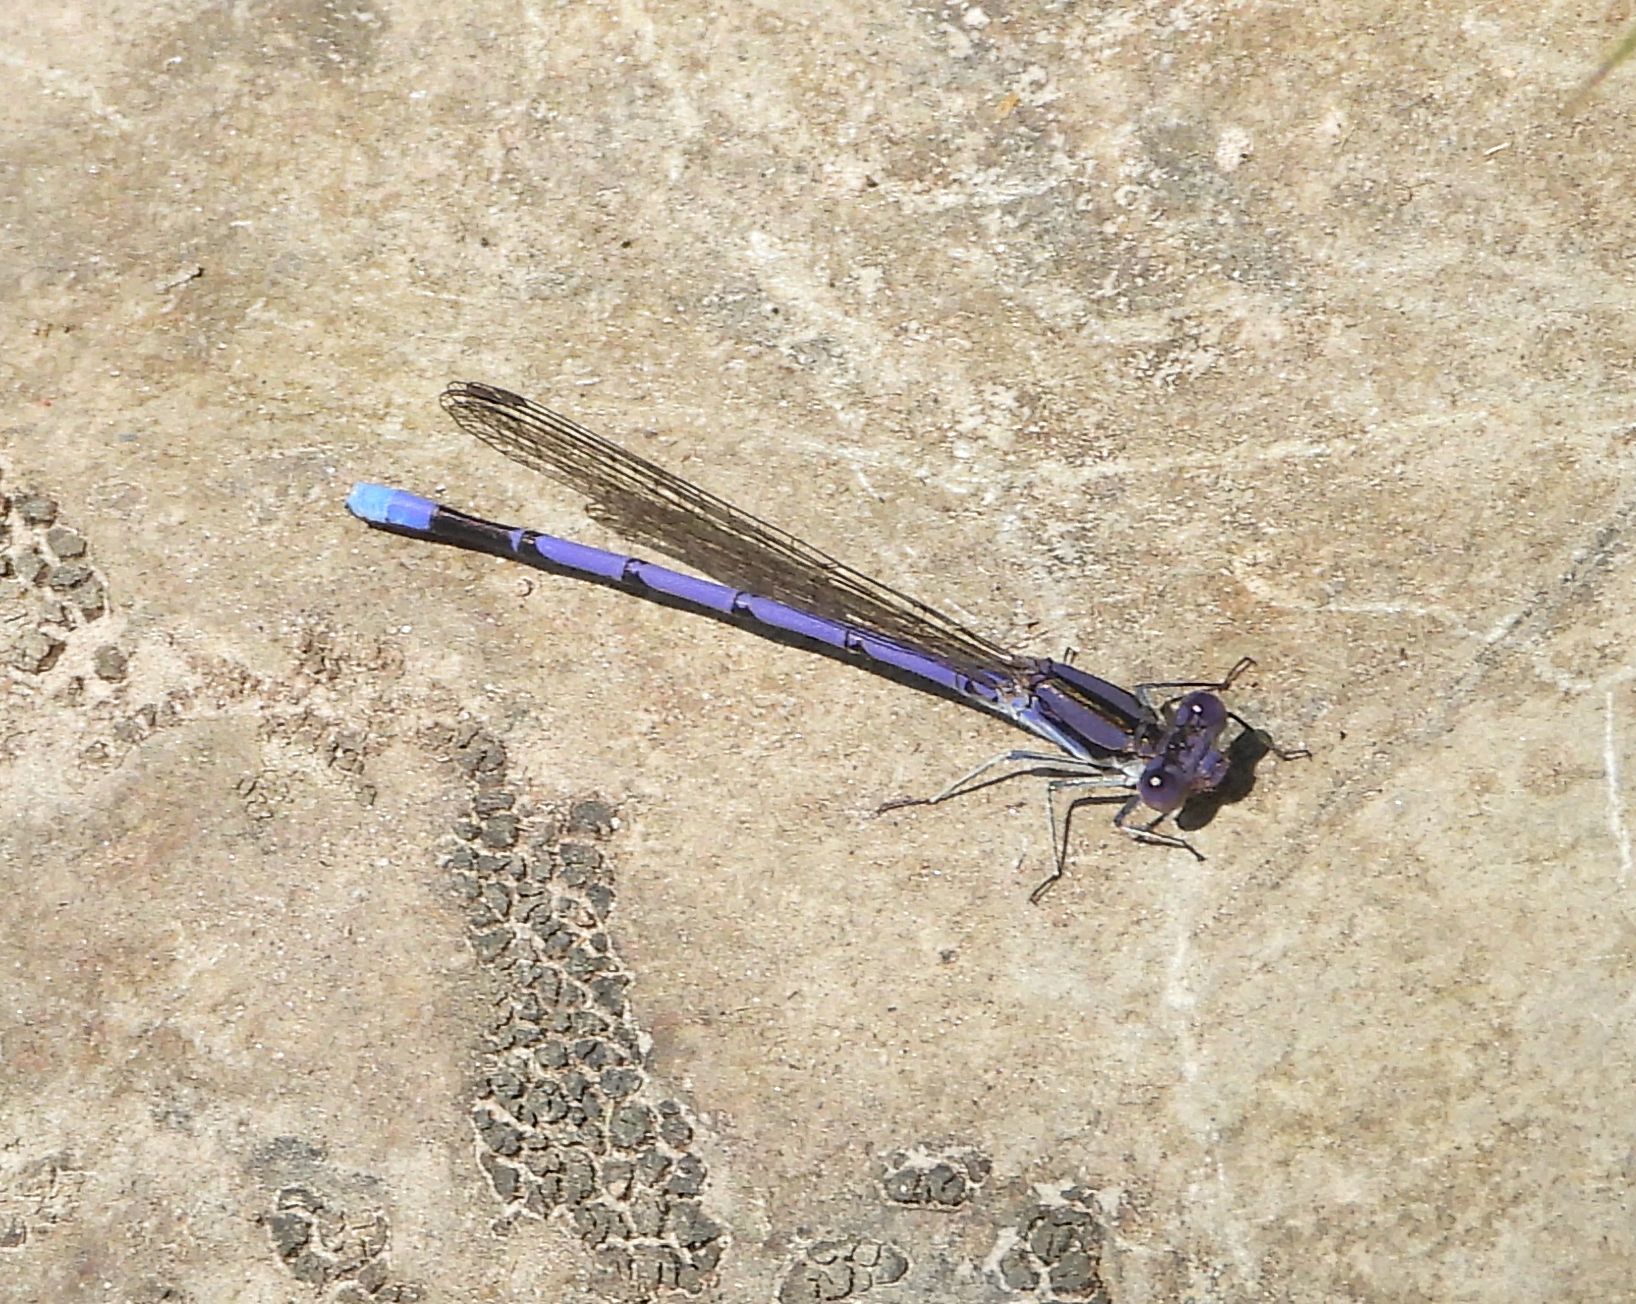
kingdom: Animalia
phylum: Arthropoda
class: Insecta
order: Odonata
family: Coenagrionidae
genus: Argia
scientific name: Argia fumipennis
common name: Variable dancer
